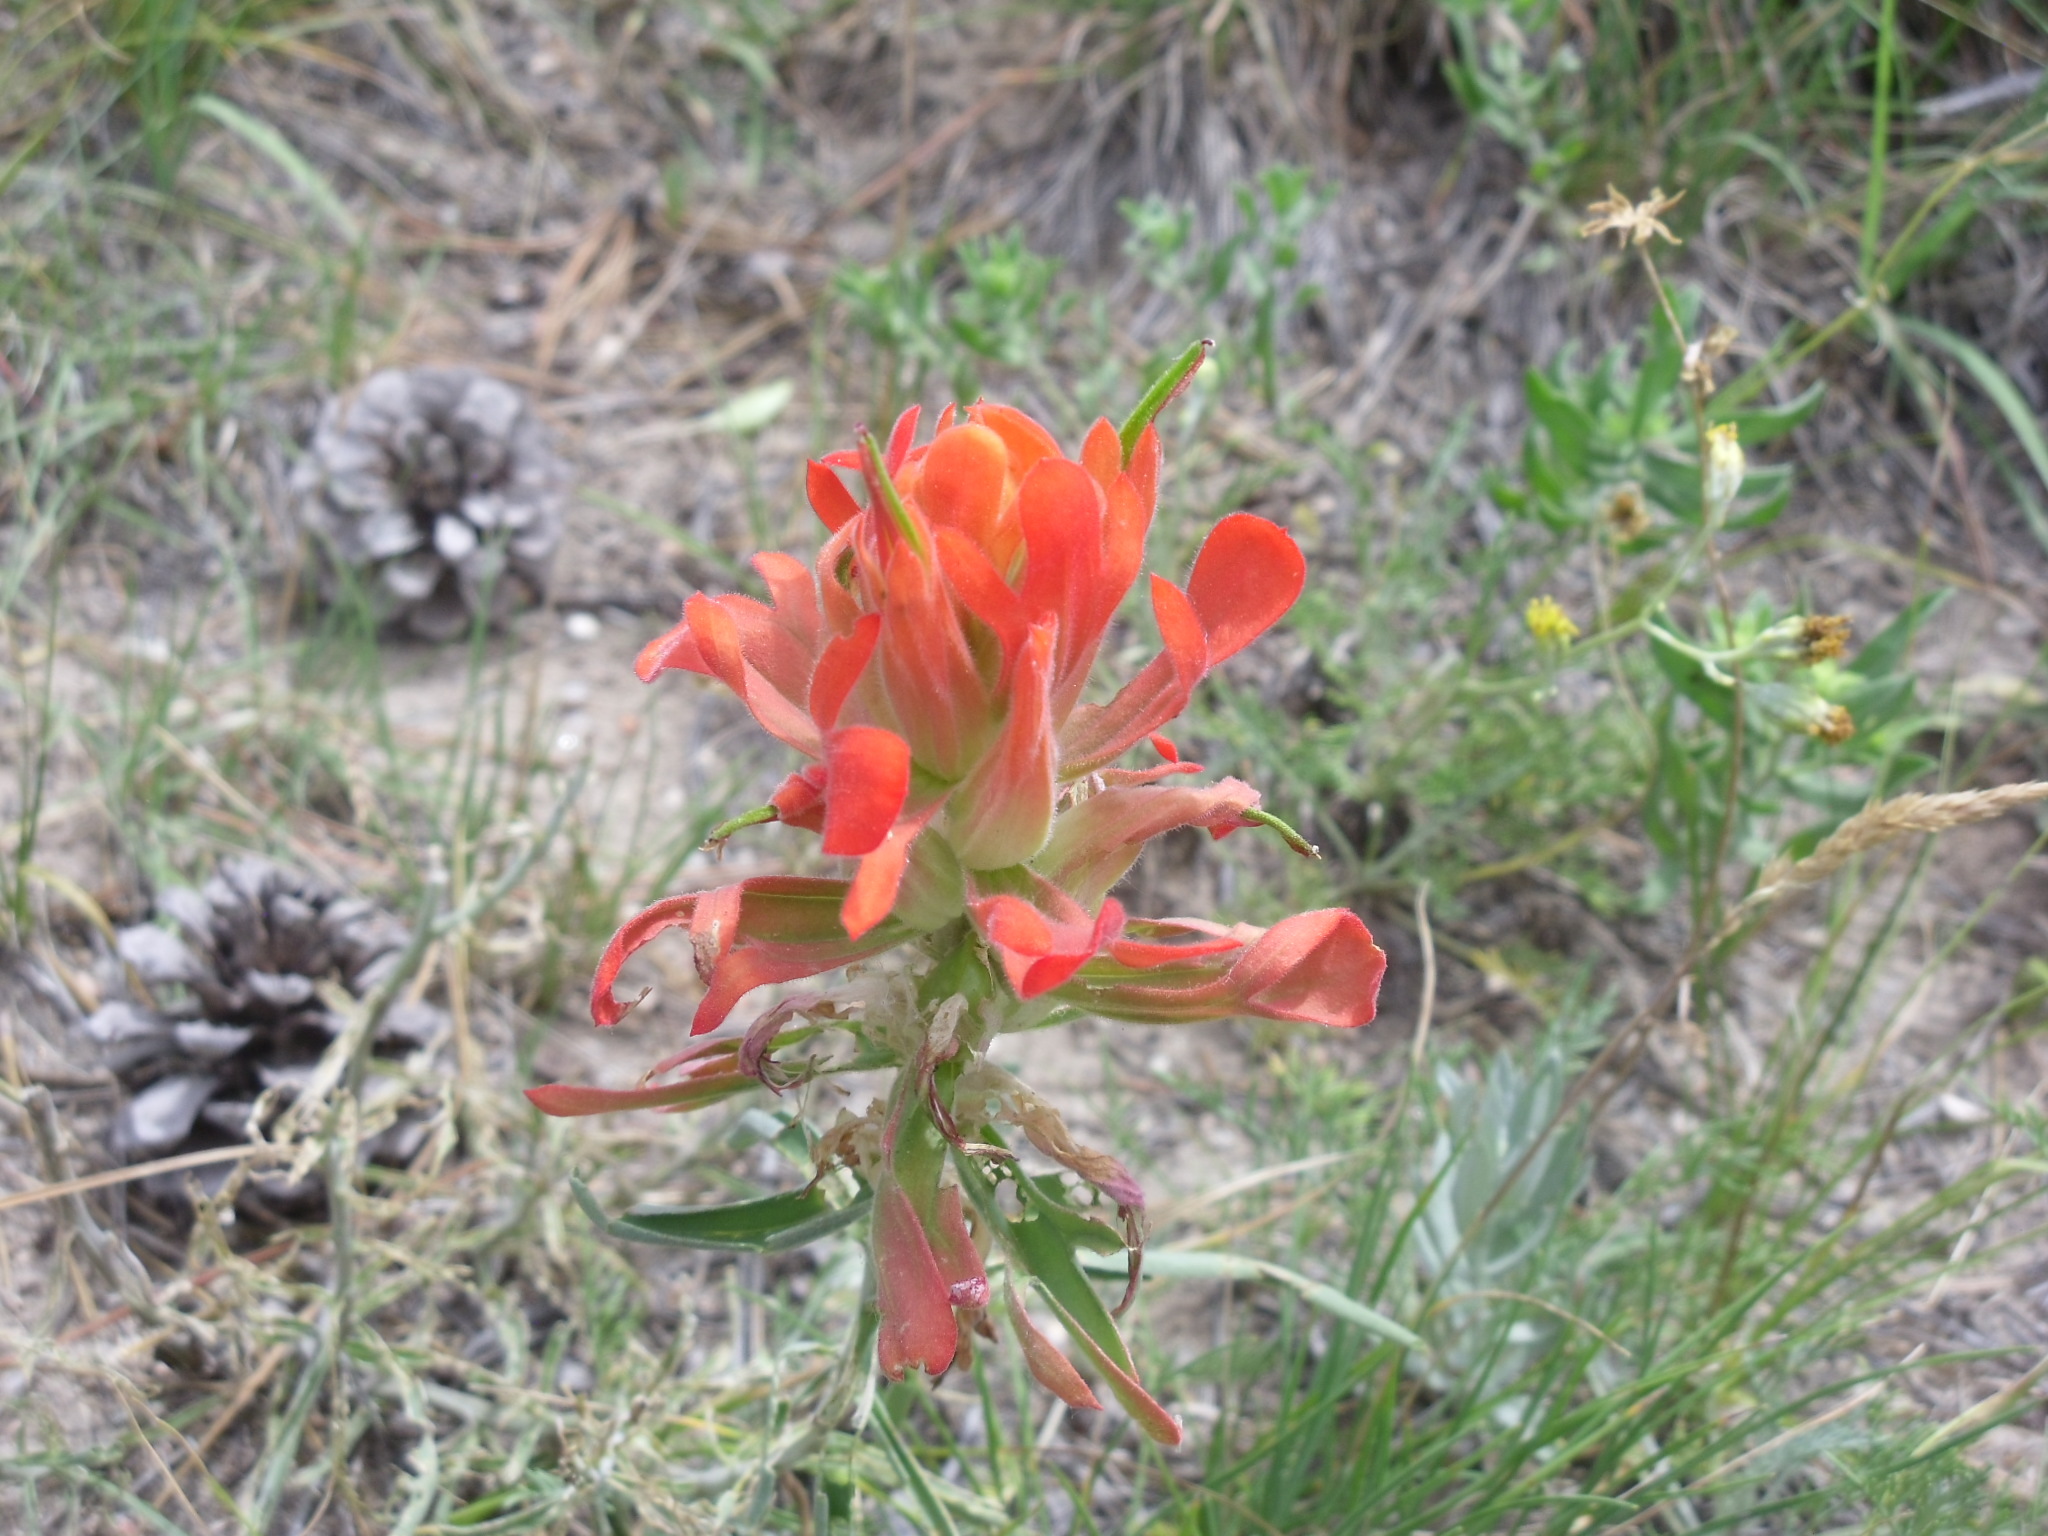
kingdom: Plantae
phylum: Tracheophyta
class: Magnoliopsida
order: Lamiales
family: Orobanchaceae
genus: Castilleja
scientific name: Castilleja integra
